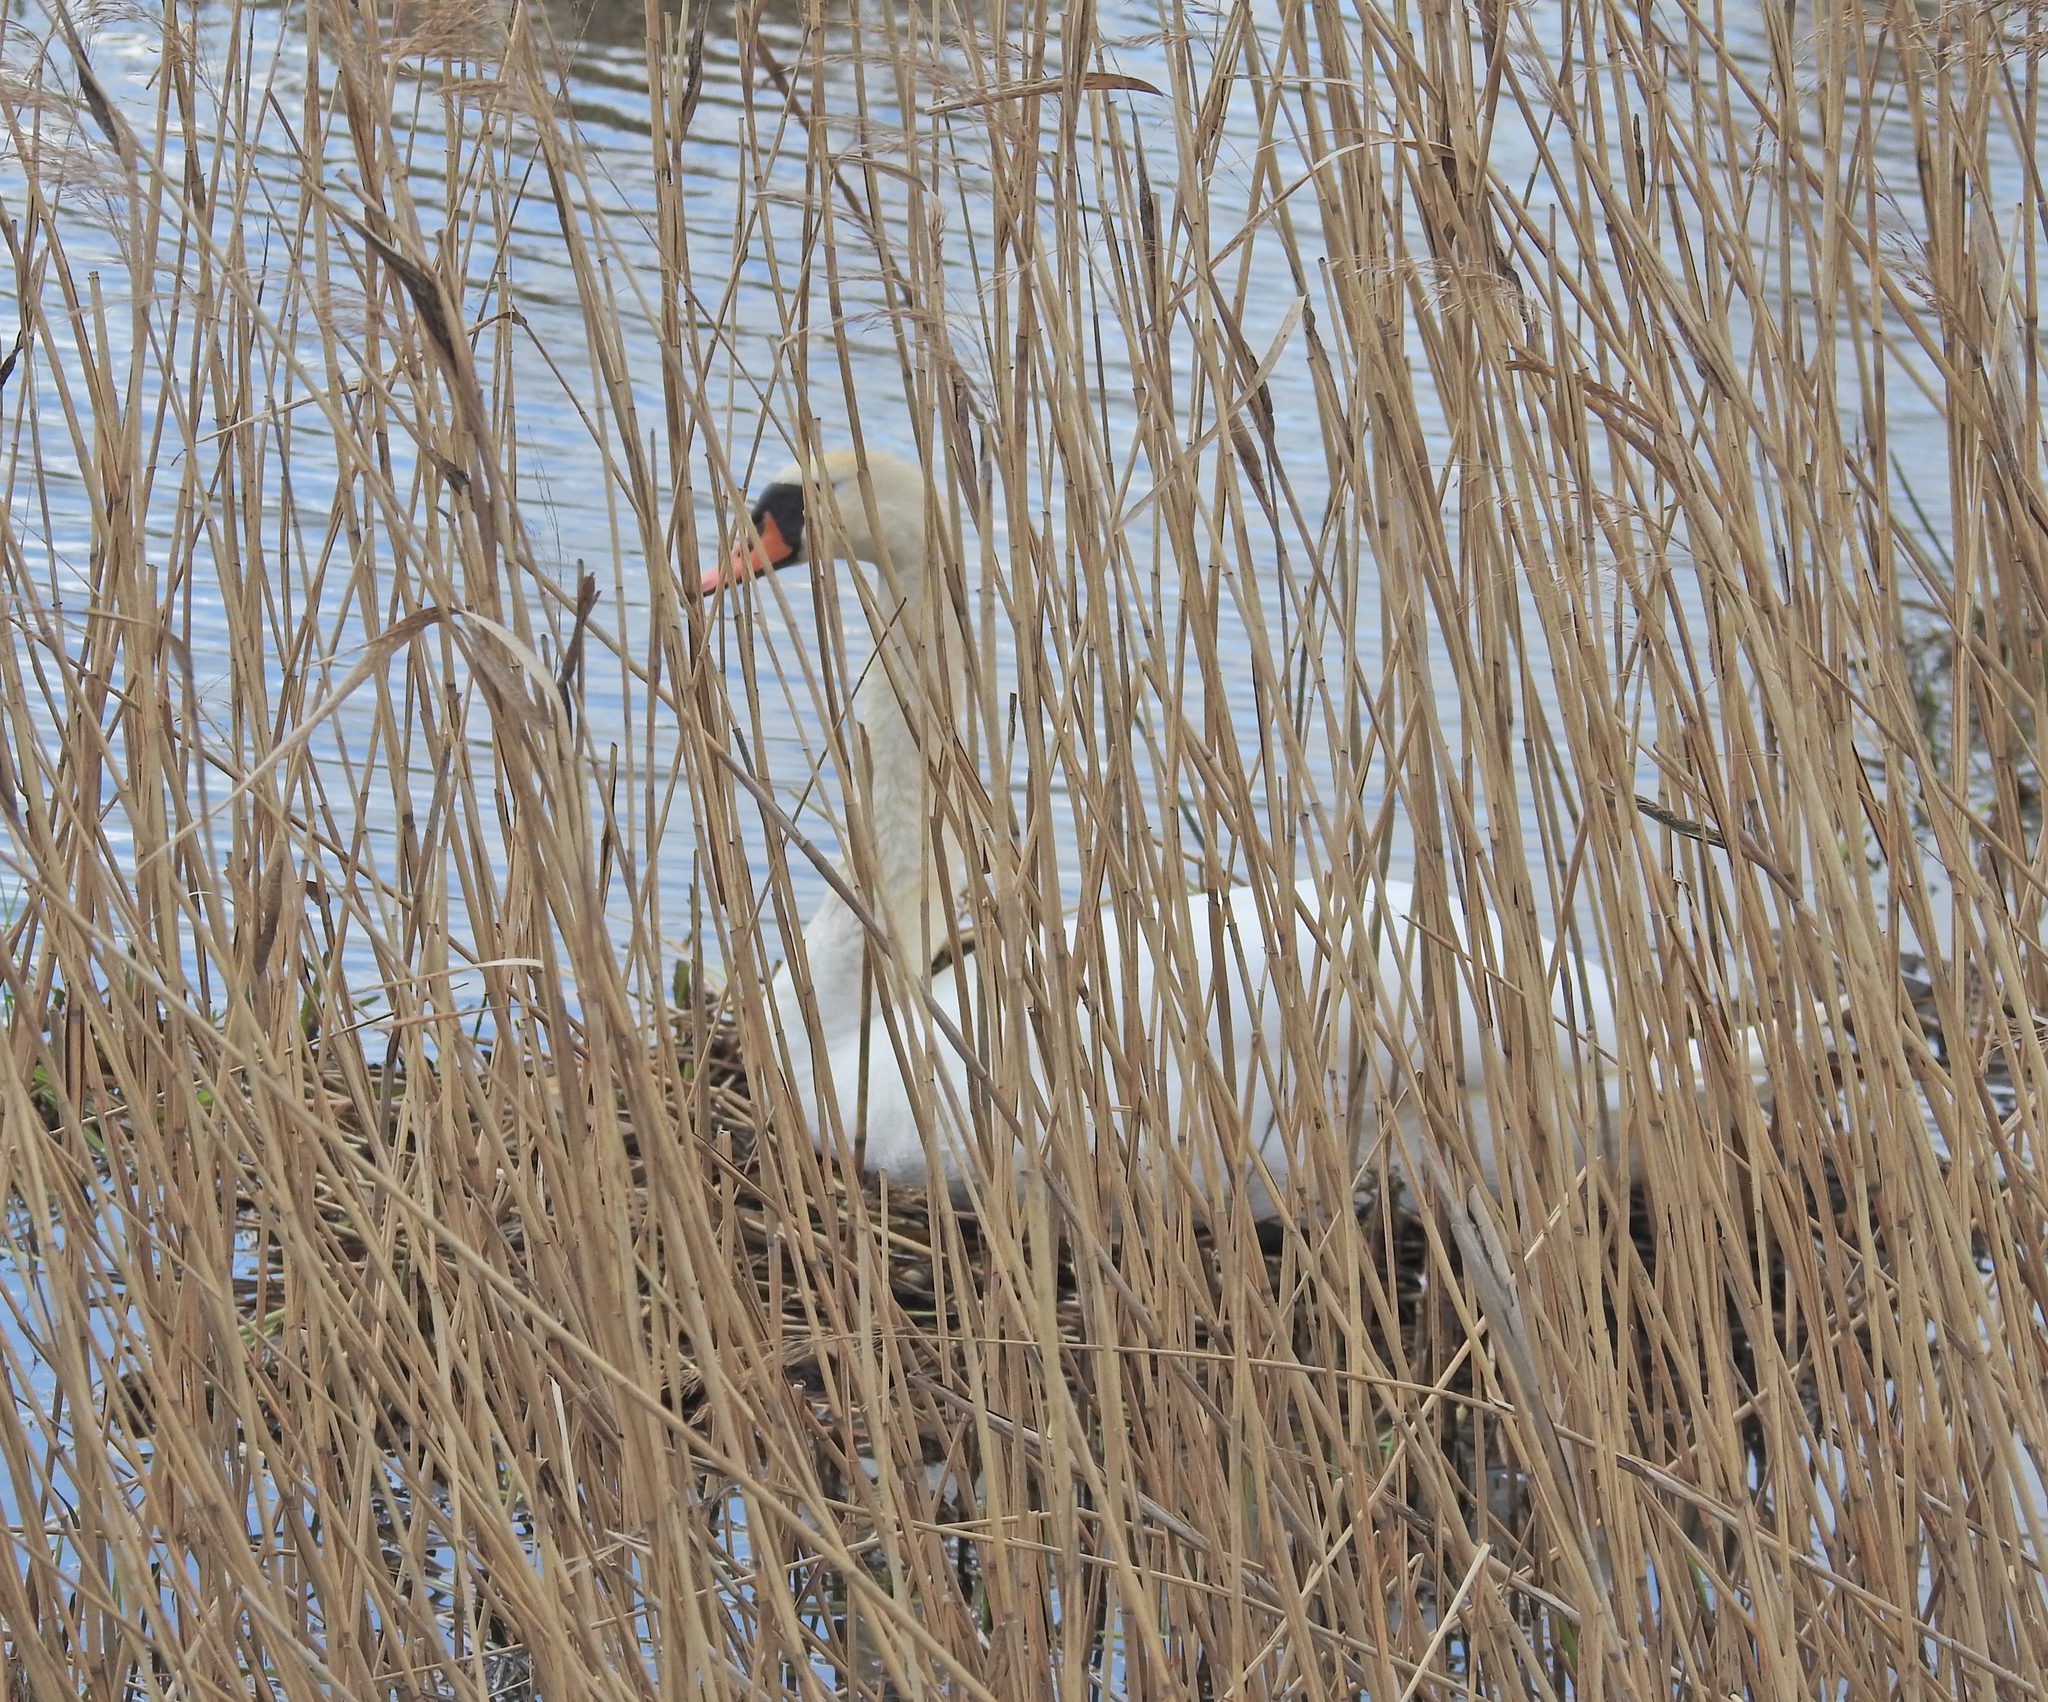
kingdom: Animalia
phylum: Chordata
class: Aves
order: Anseriformes
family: Anatidae
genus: Cygnus
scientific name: Cygnus olor
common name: Mute swan
